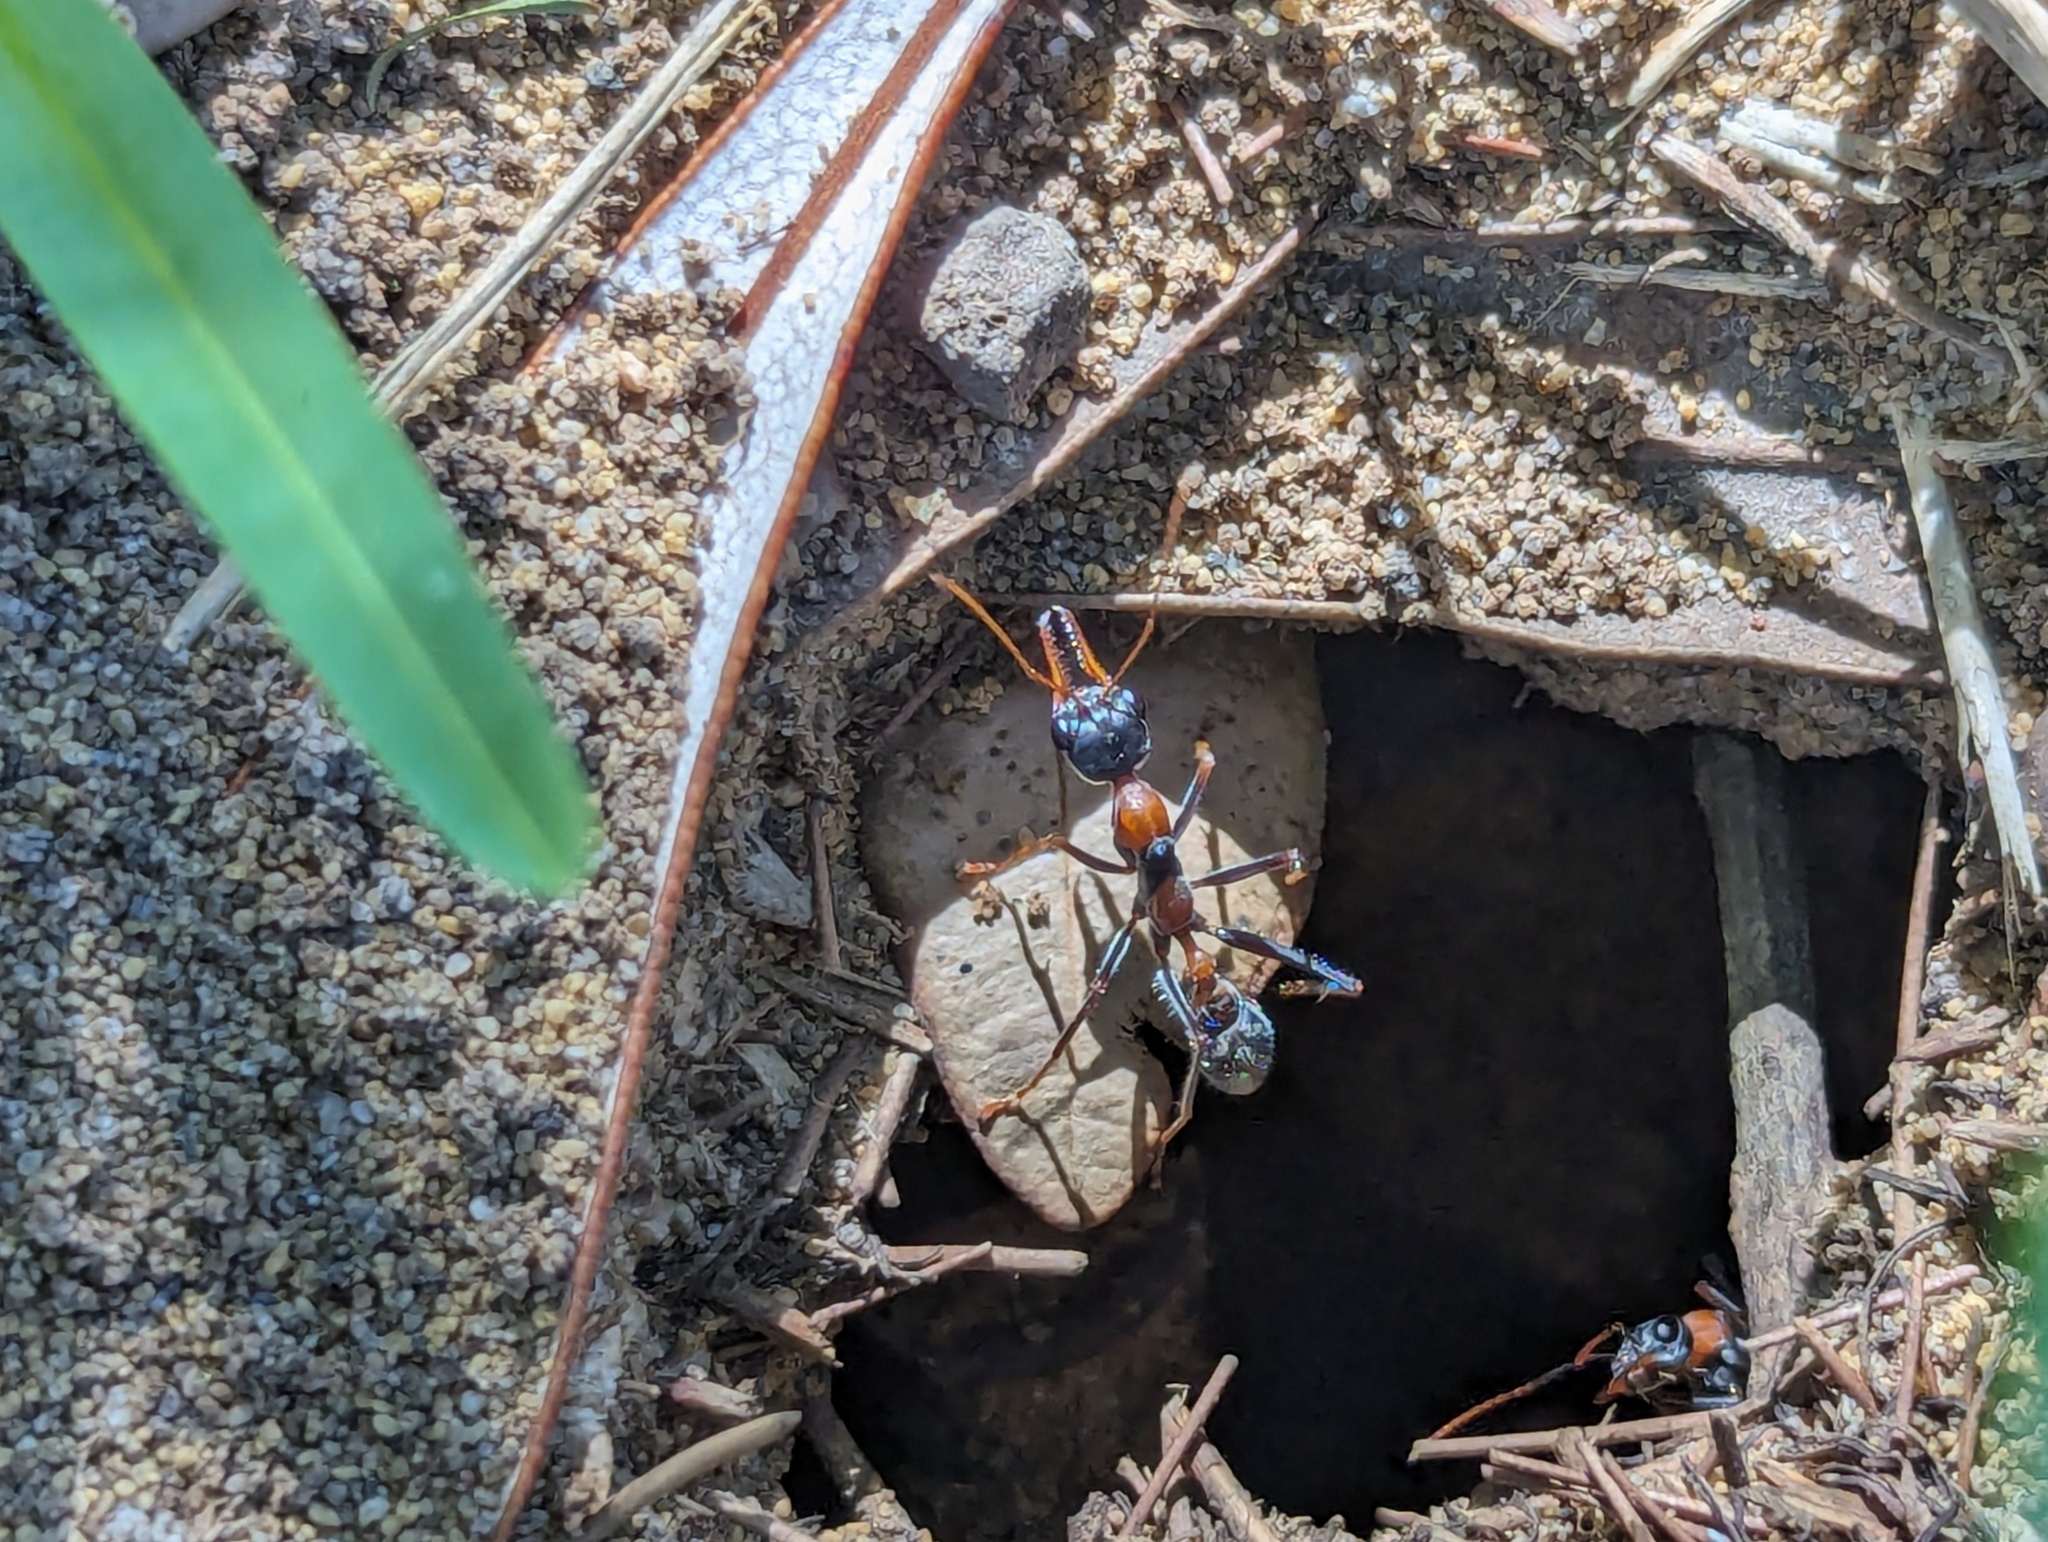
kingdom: Animalia
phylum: Arthropoda
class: Insecta
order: Hymenoptera
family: Formicidae
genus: Myrmecia
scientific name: Myrmecia nigrocincta
